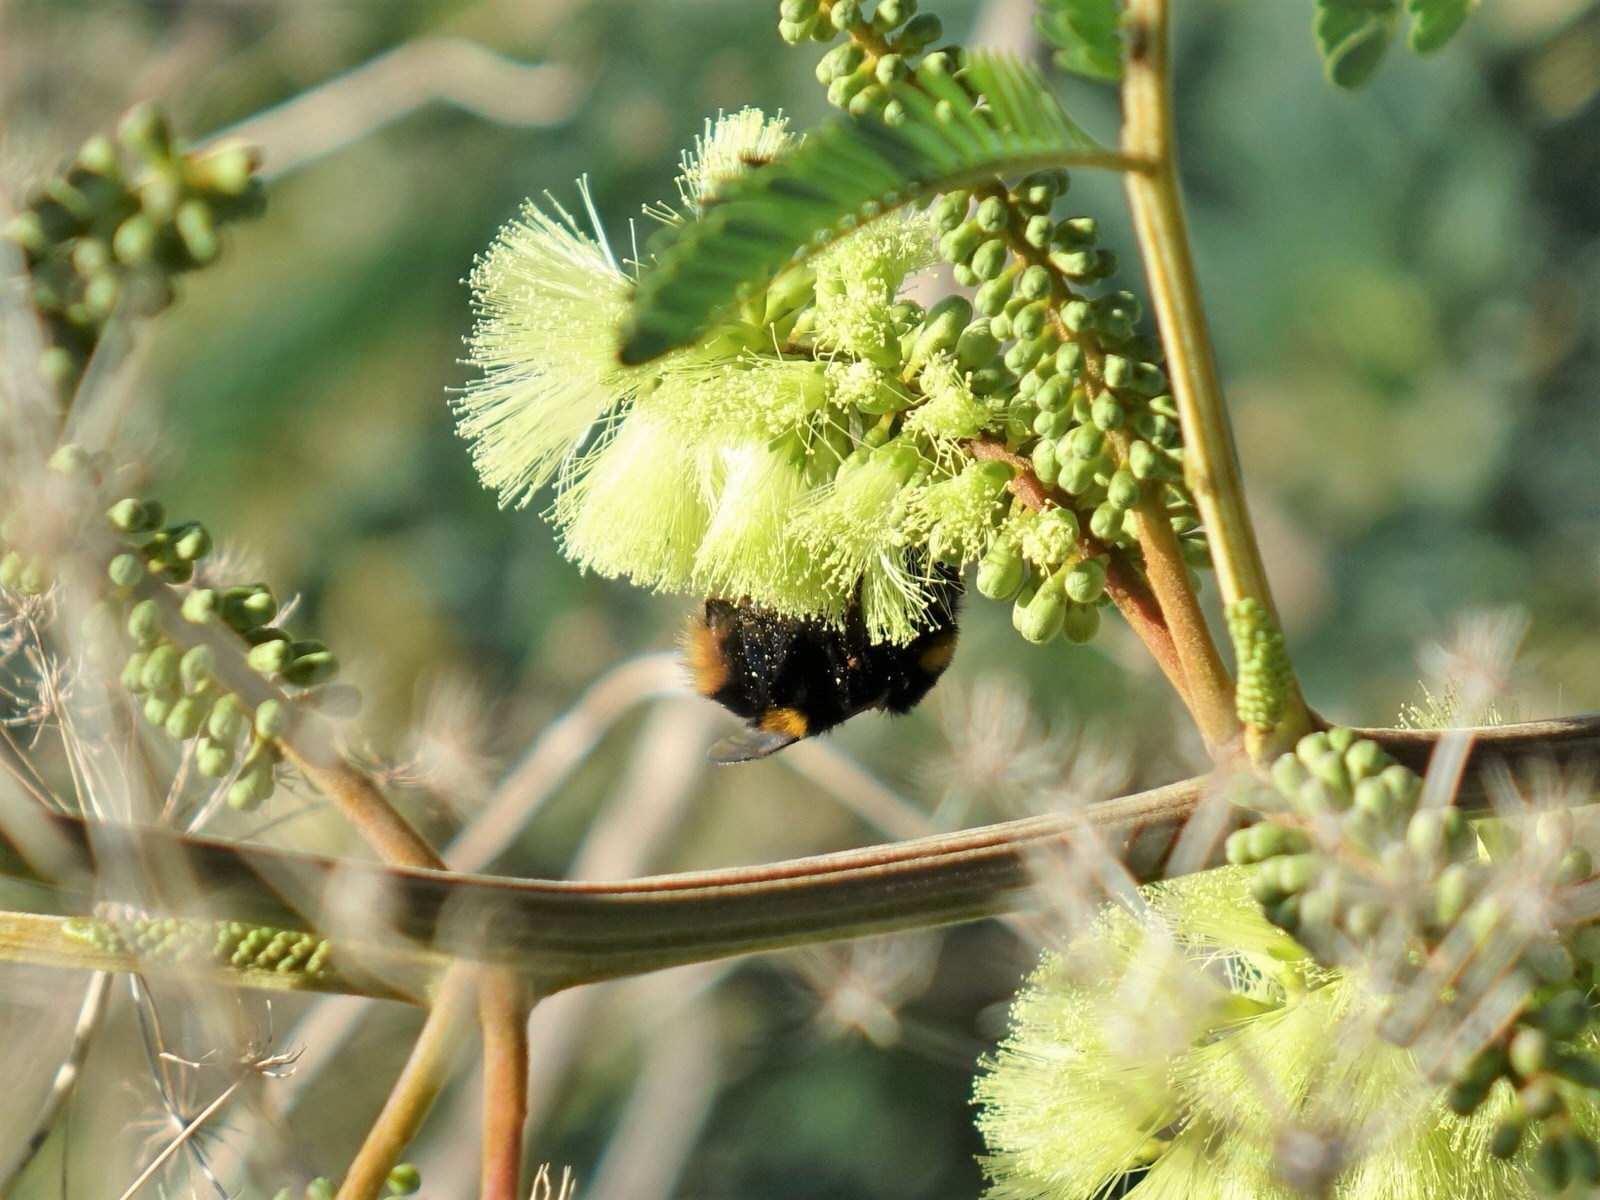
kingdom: Animalia
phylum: Arthropoda
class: Insecta
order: Hymenoptera
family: Apidae
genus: Bombus
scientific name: Bombus terrestris
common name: Buff-tailed bumblebee
